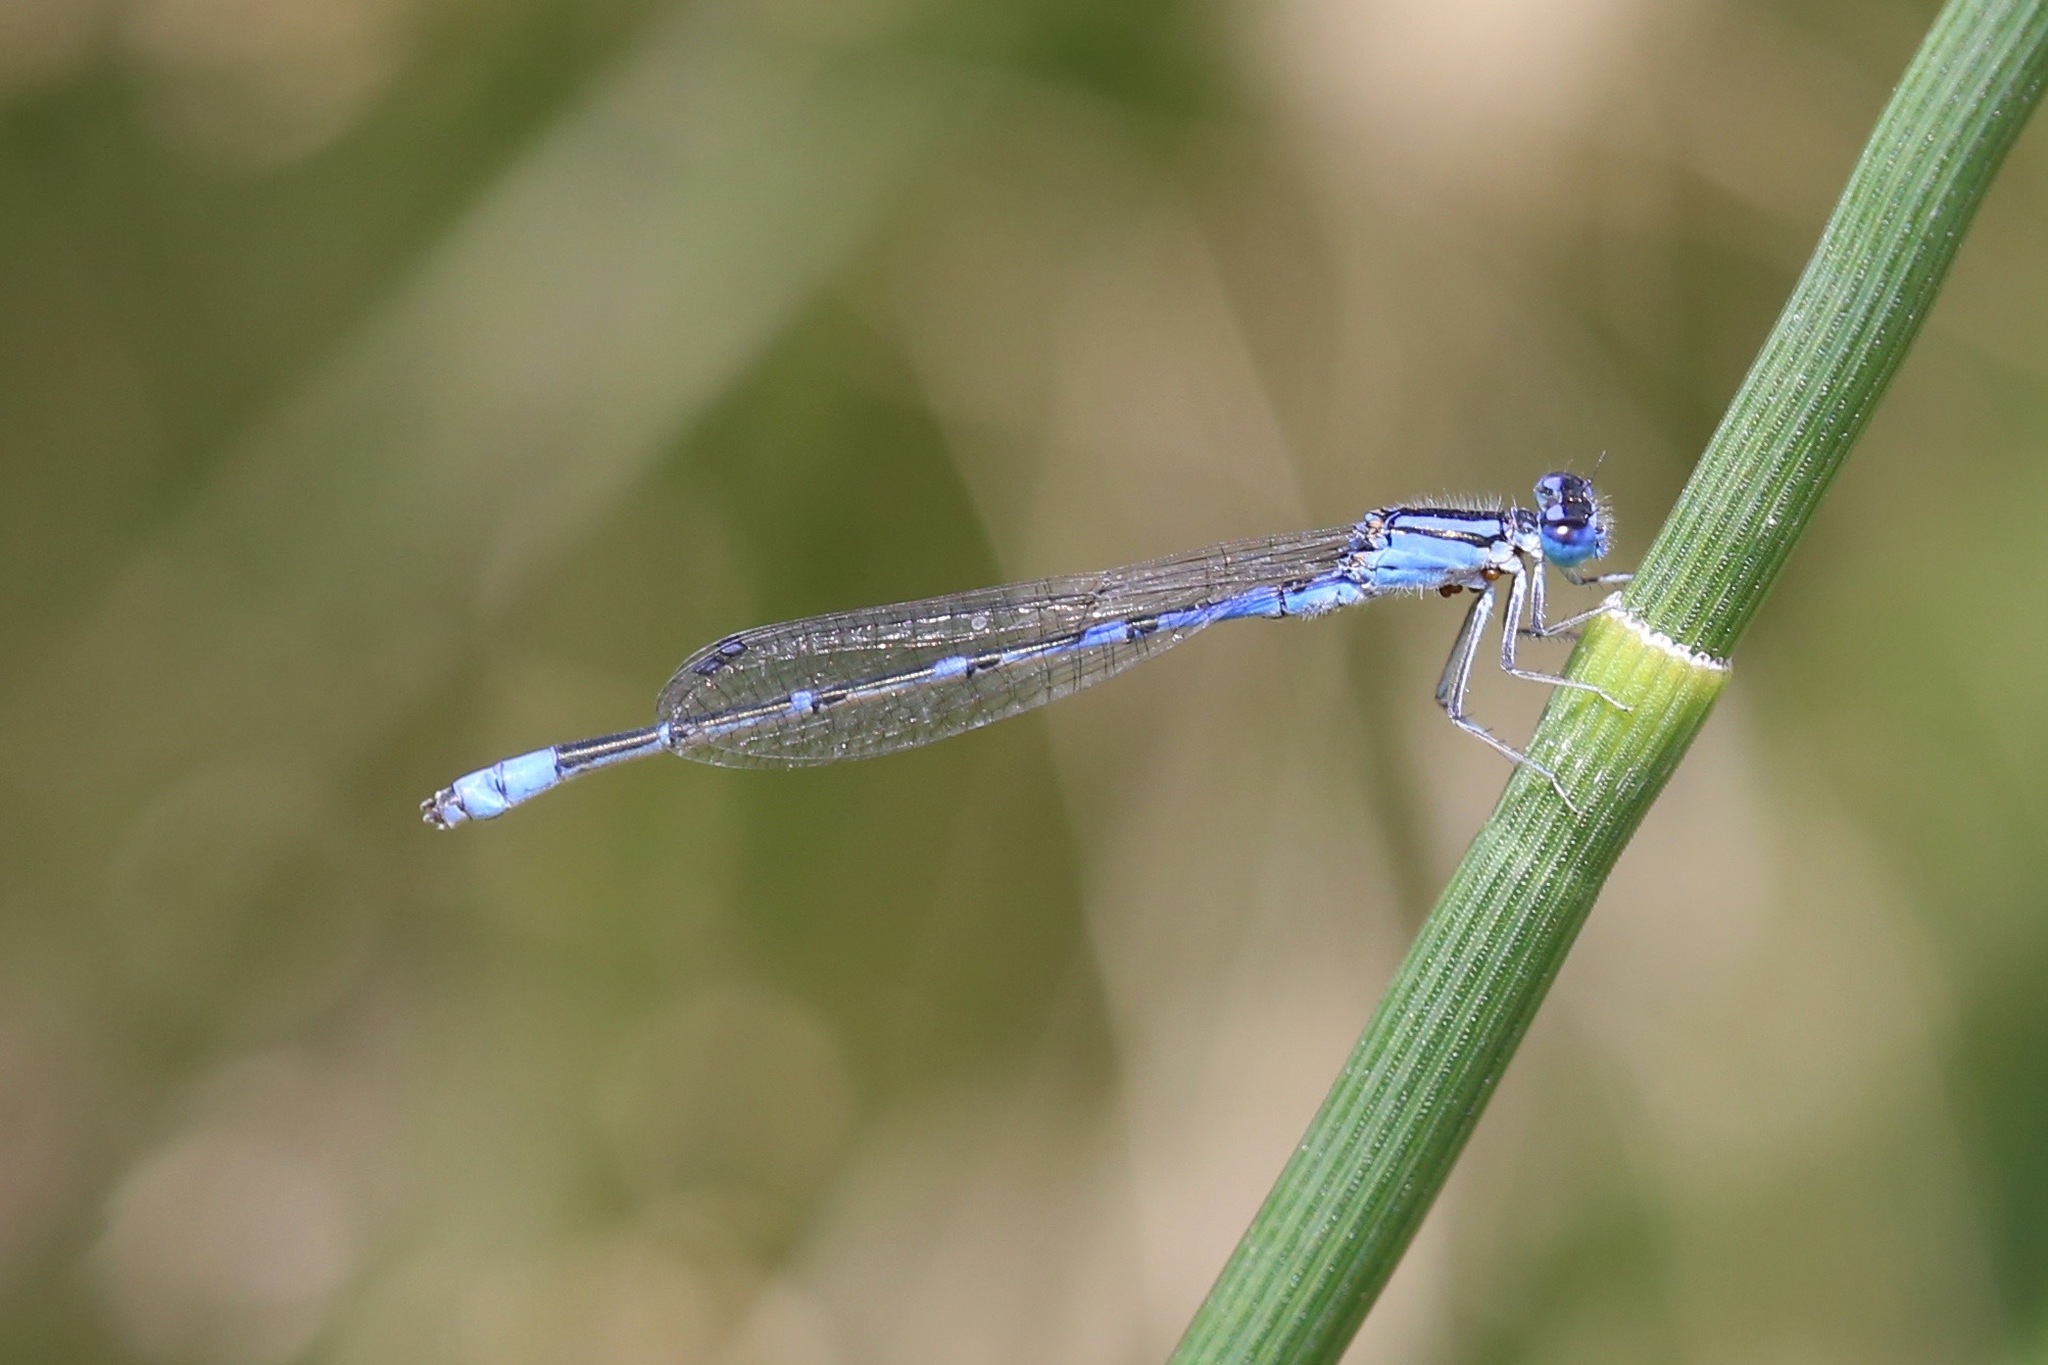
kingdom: Animalia
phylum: Arthropoda
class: Insecta
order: Odonata
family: Coenagrionidae
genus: Enallagma
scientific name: Enallagma praevarum
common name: Arroyo bluet
